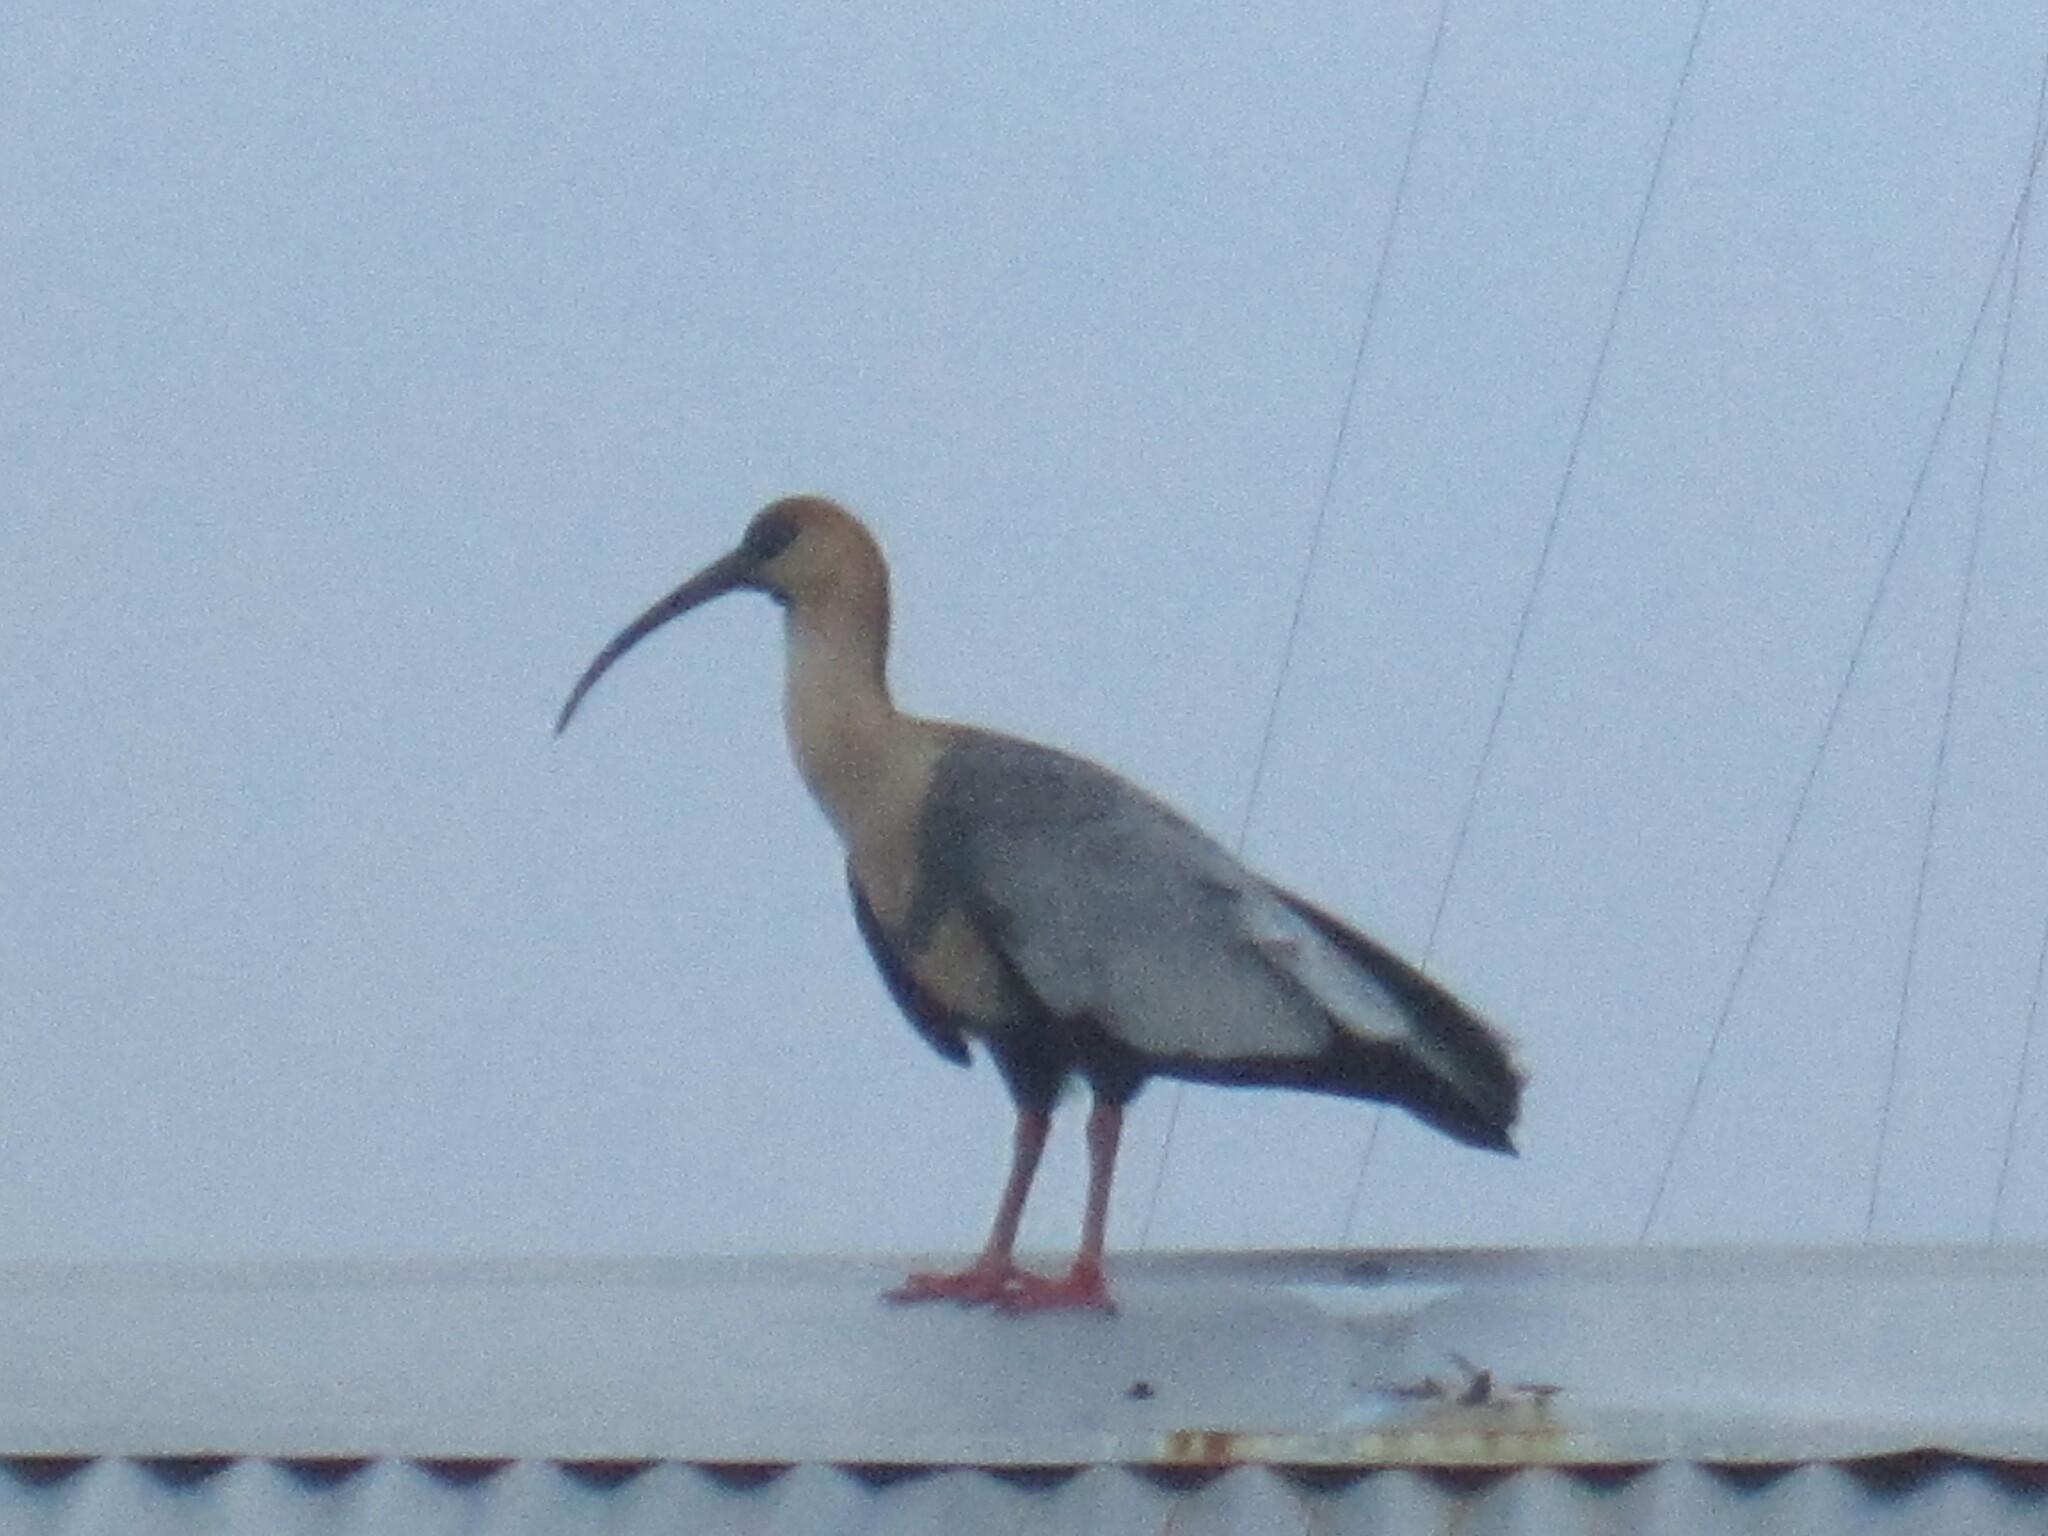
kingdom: Animalia
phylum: Chordata
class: Aves
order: Pelecaniformes
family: Threskiornithidae
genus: Theristicus
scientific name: Theristicus melanopis
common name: Black-faced ibis
